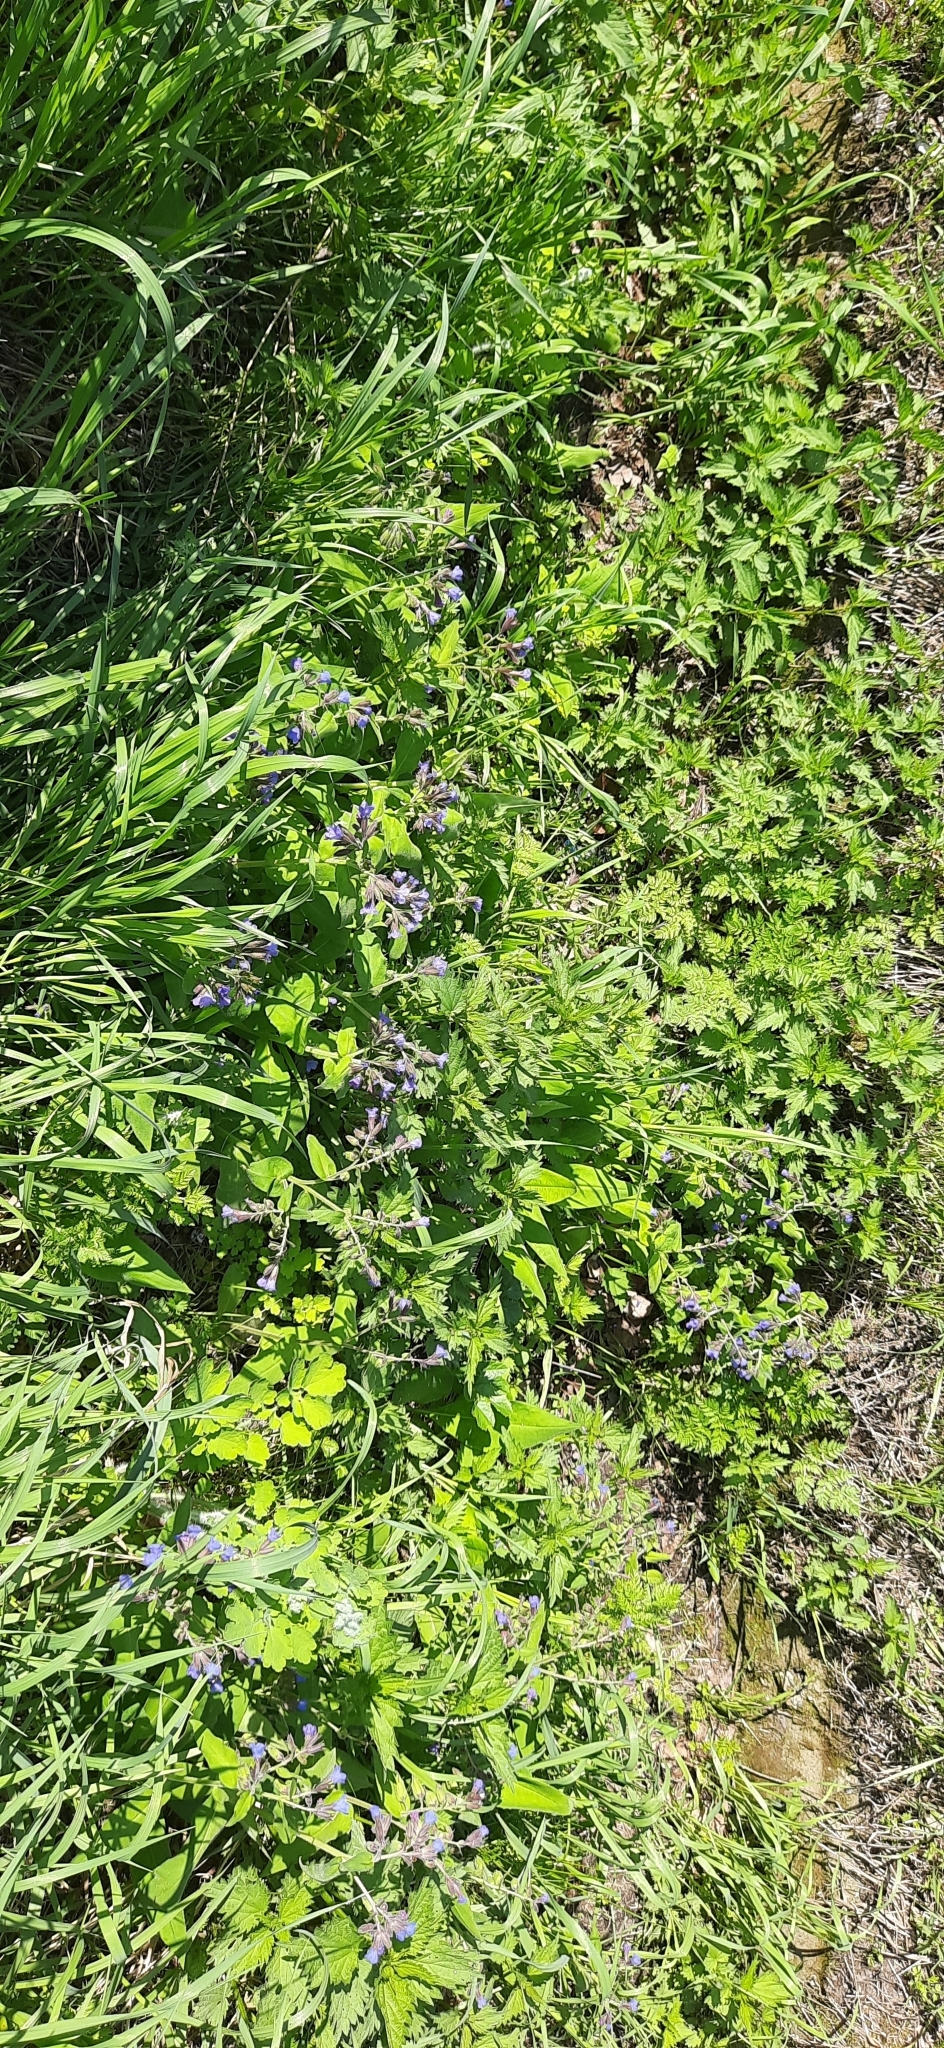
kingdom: Plantae
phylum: Tracheophyta
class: Magnoliopsida
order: Boraginales
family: Boraginaceae
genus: Pulmonaria
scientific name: Pulmonaria mollis
